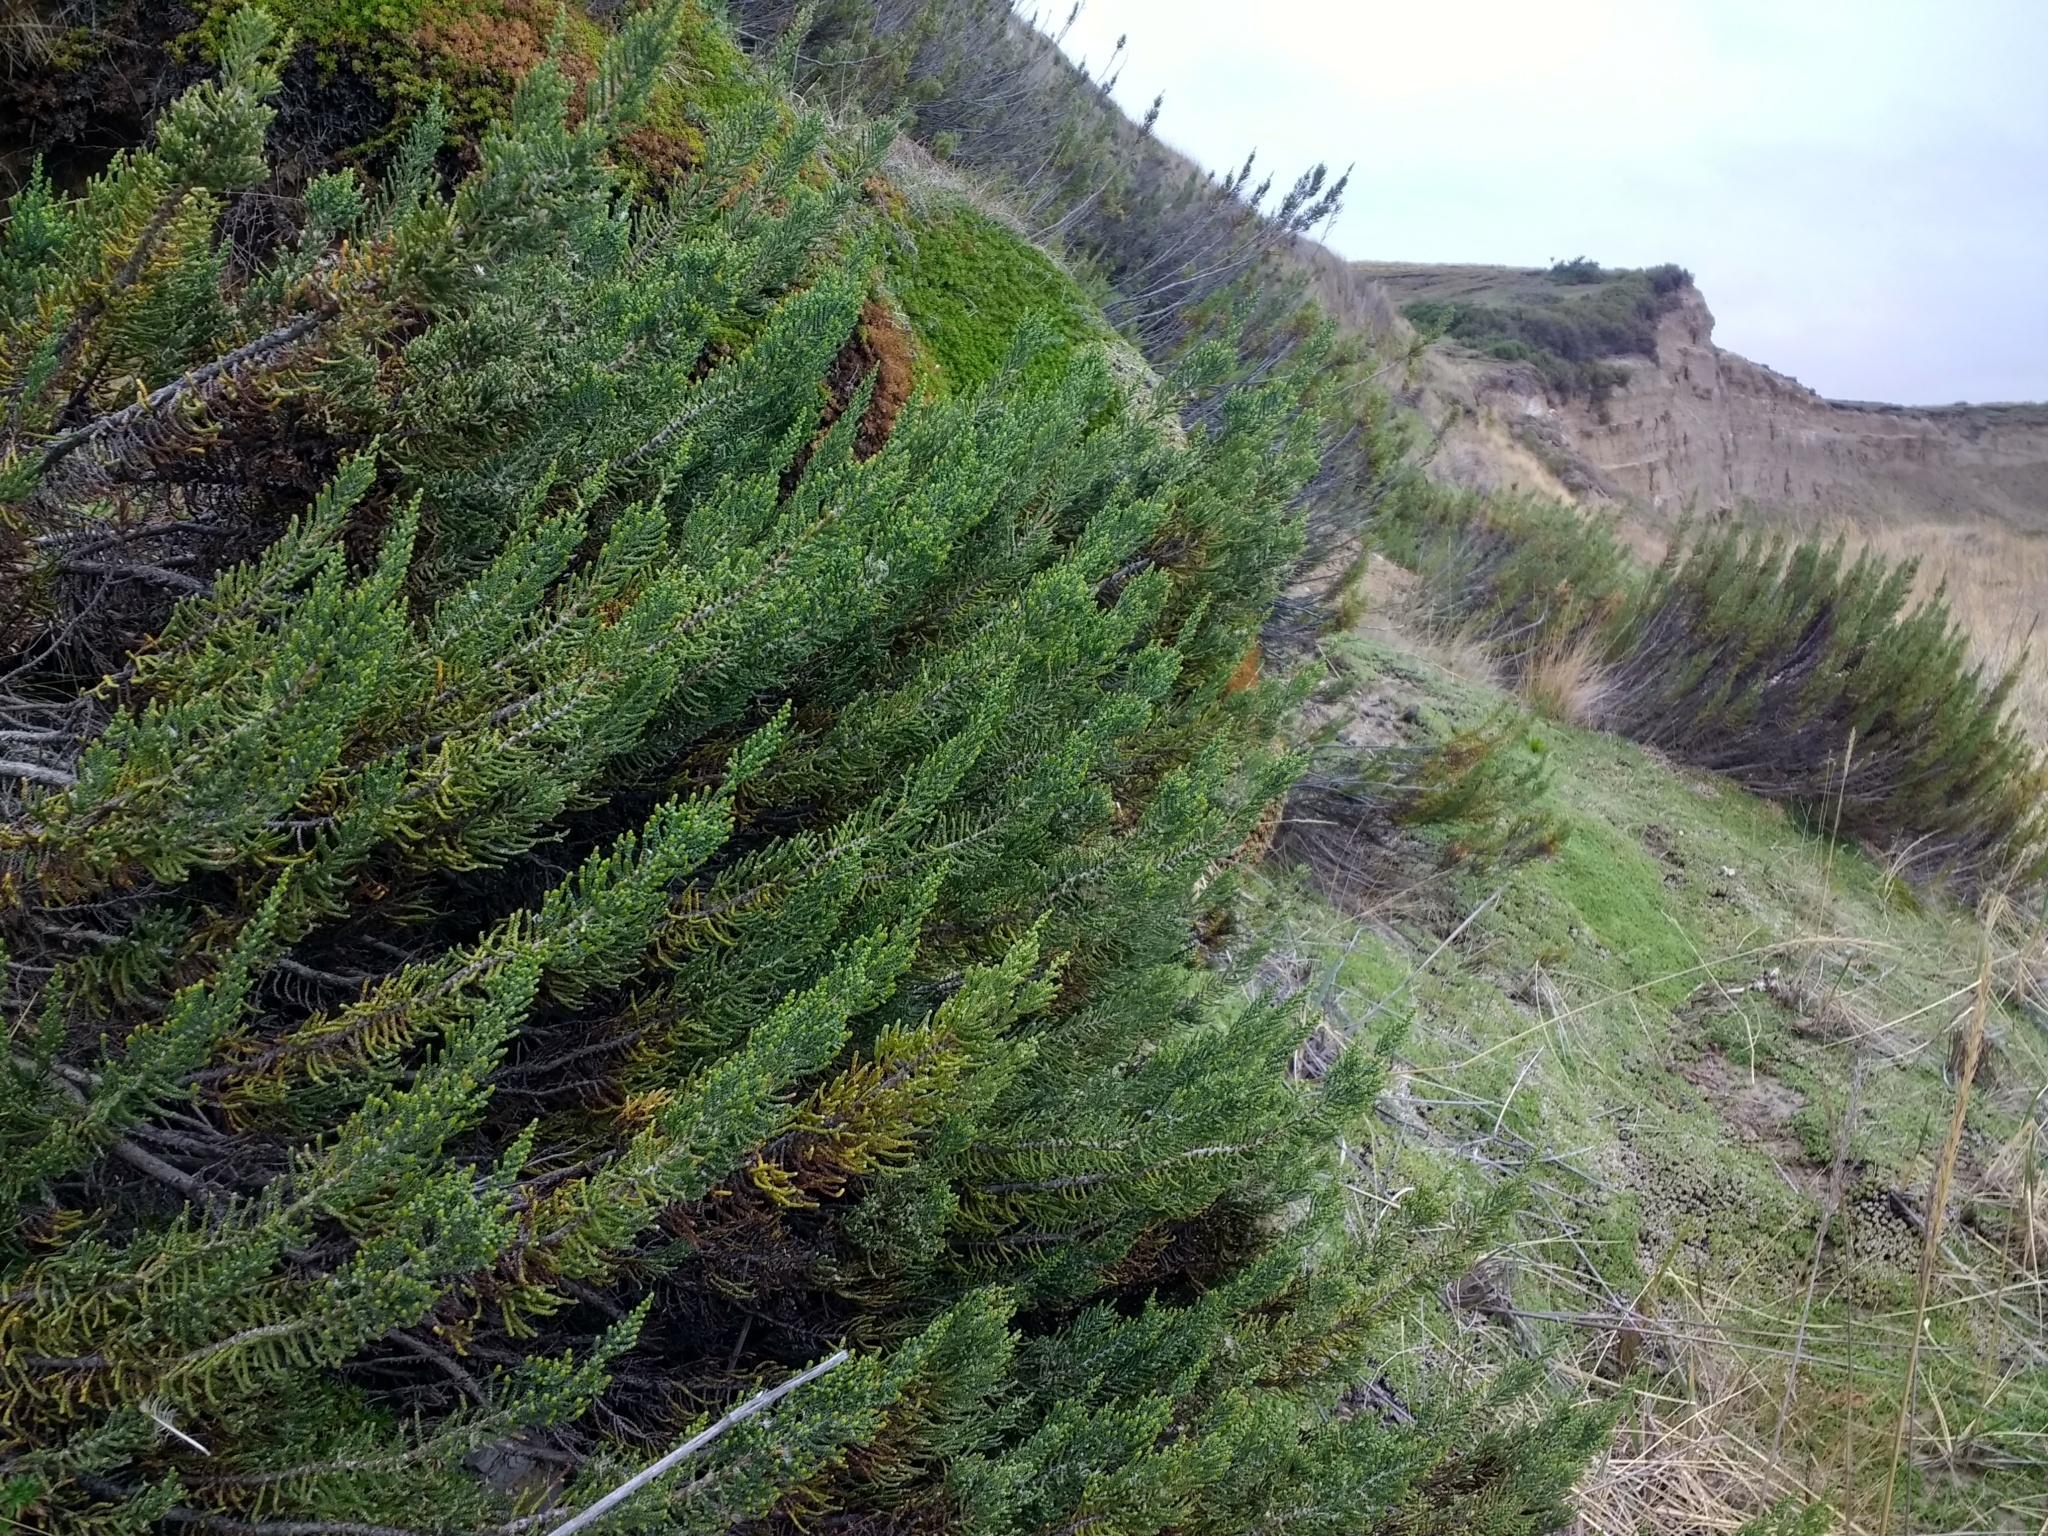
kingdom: Plantae
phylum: Tracheophyta
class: Magnoliopsida
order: Asterales
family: Asteraceae
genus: Lepidophyllum
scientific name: Lepidophyllum cupressiforme
